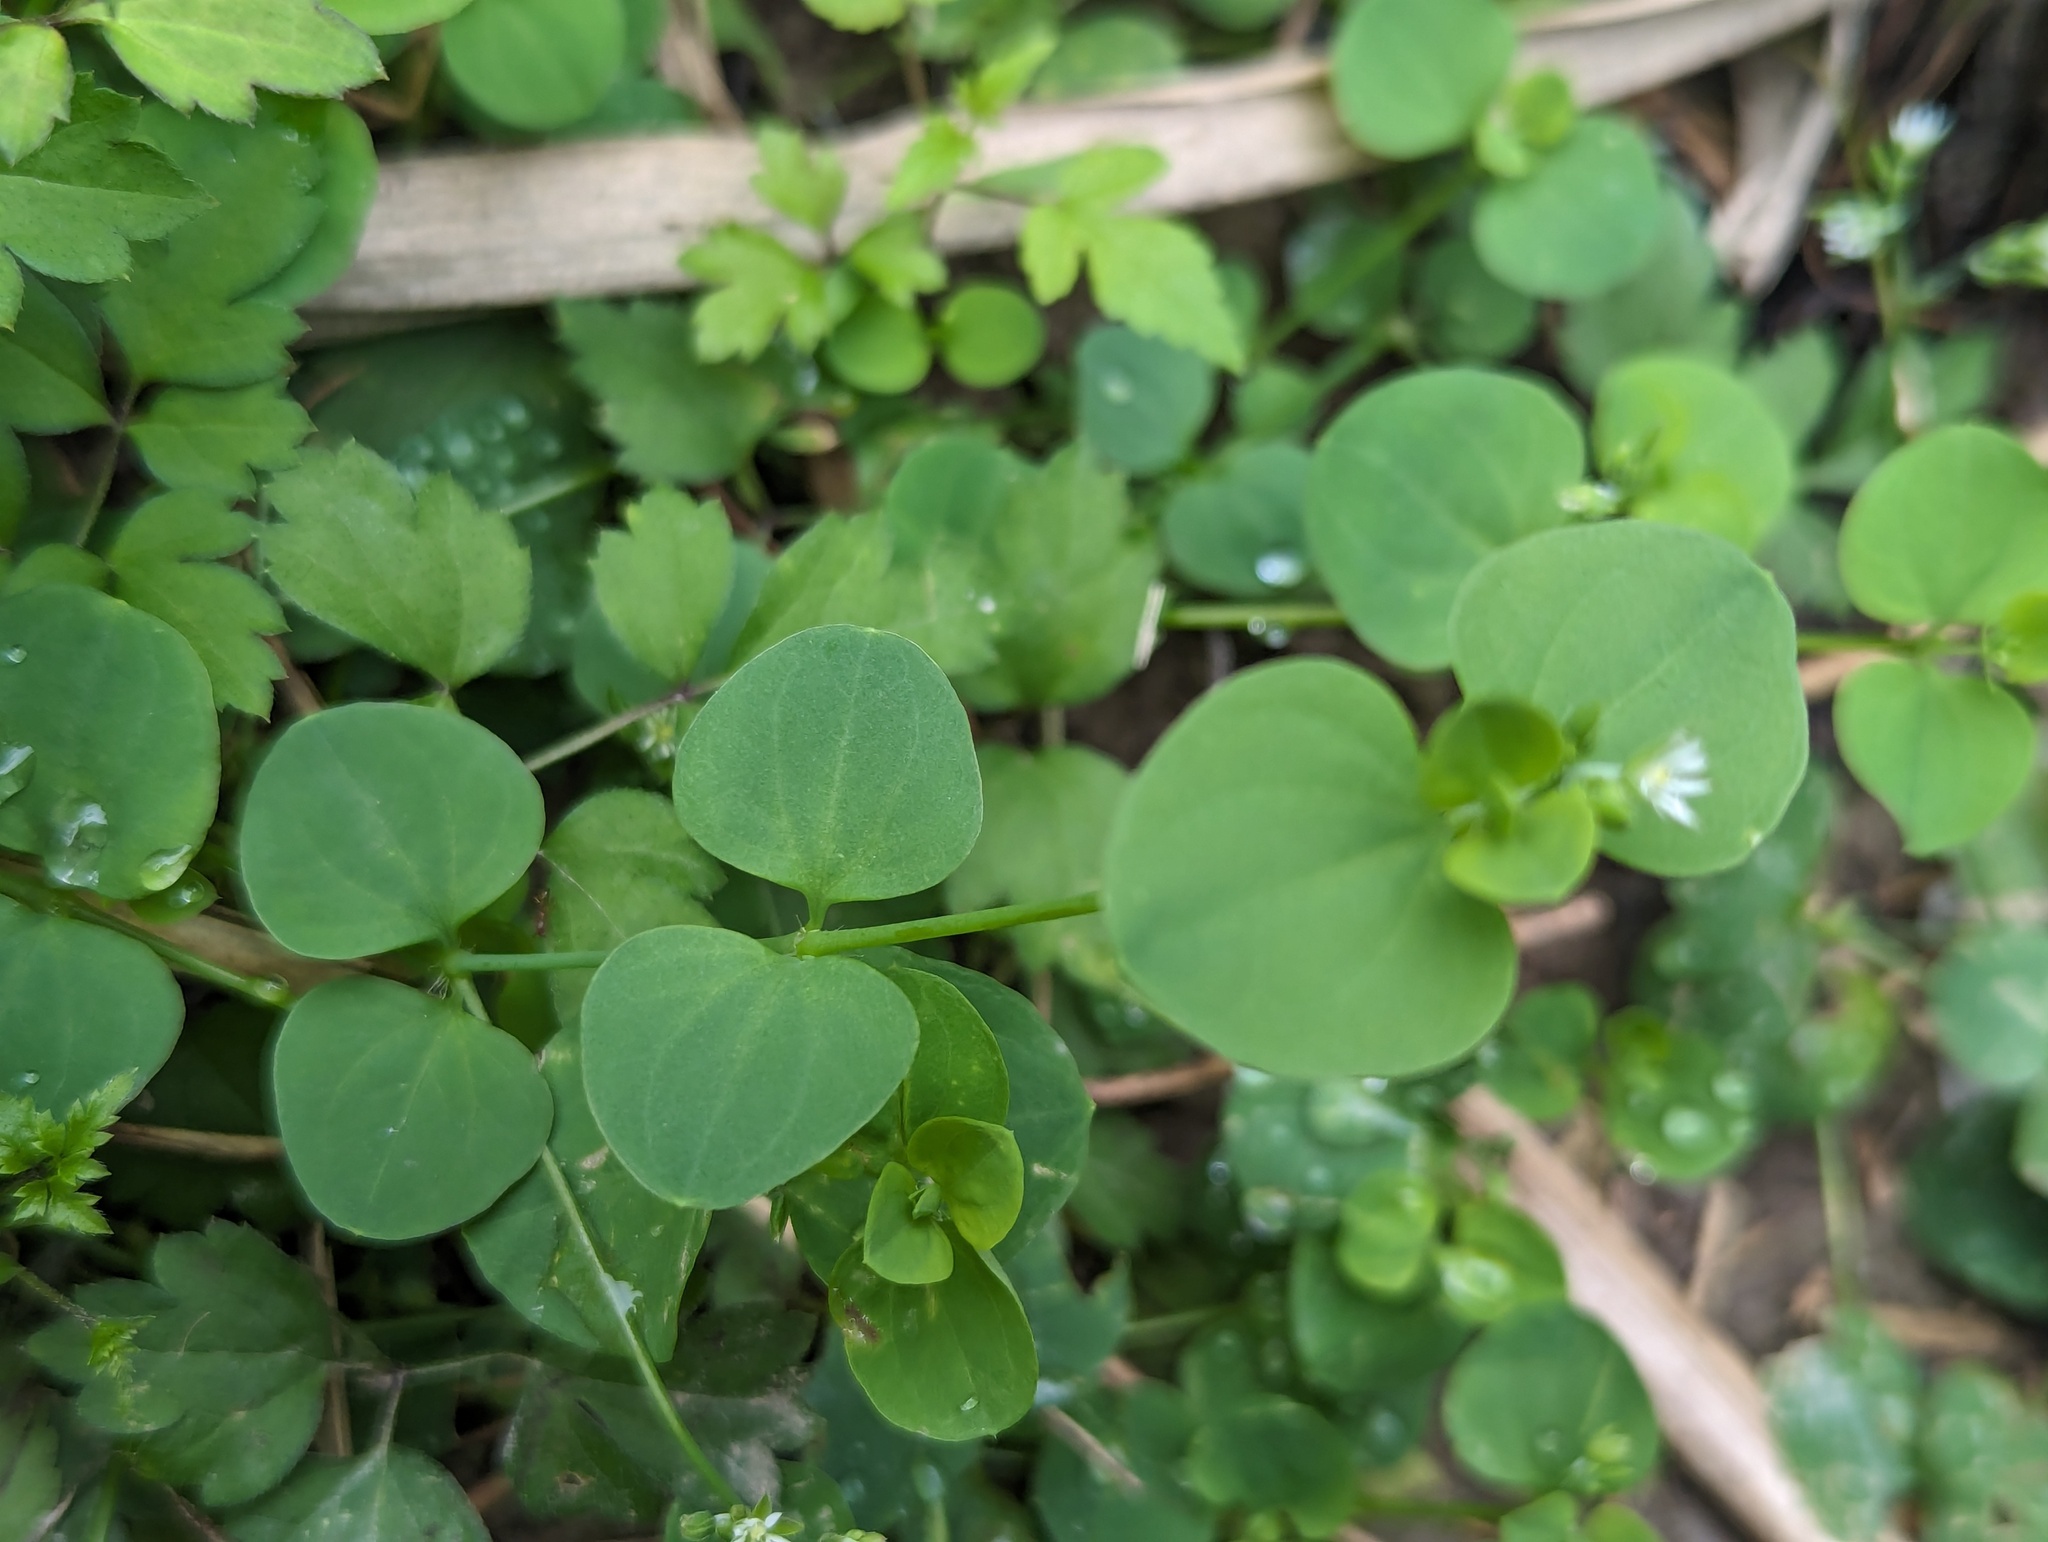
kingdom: Plantae
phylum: Tracheophyta
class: Magnoliopsida
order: Caryophyllales
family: Caryophyllaceae
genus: Drymaria
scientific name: Drymaria cordata
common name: Whitesnow
